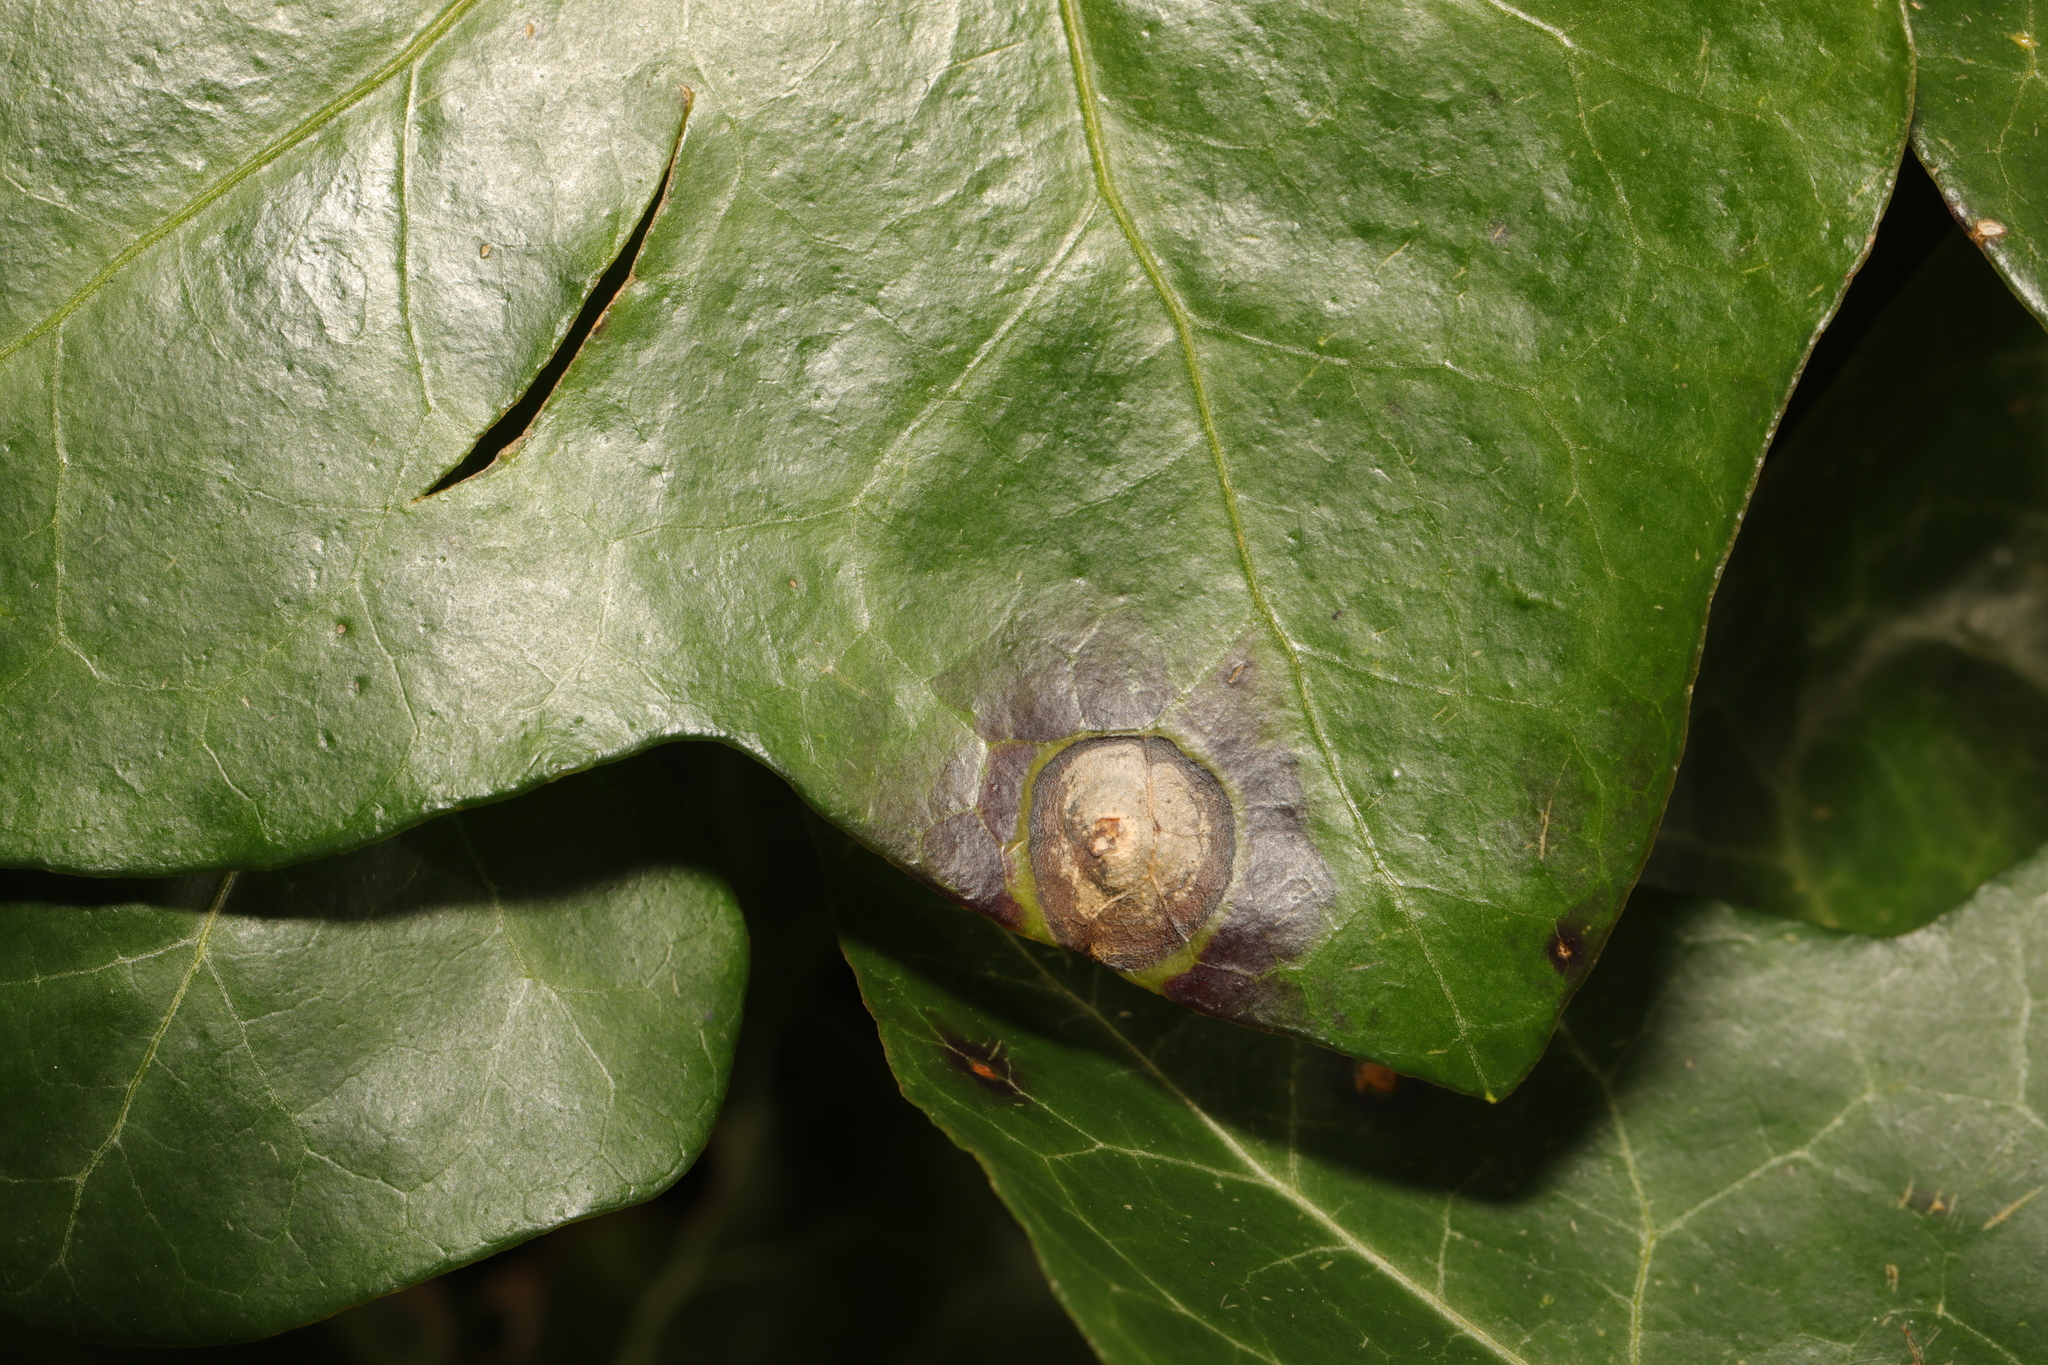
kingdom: Fungi
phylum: Ascomycota
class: Dothideomycetes
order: Pleosporales
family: Didymellaceae
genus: Boeremia
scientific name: Boeremia hedericola
